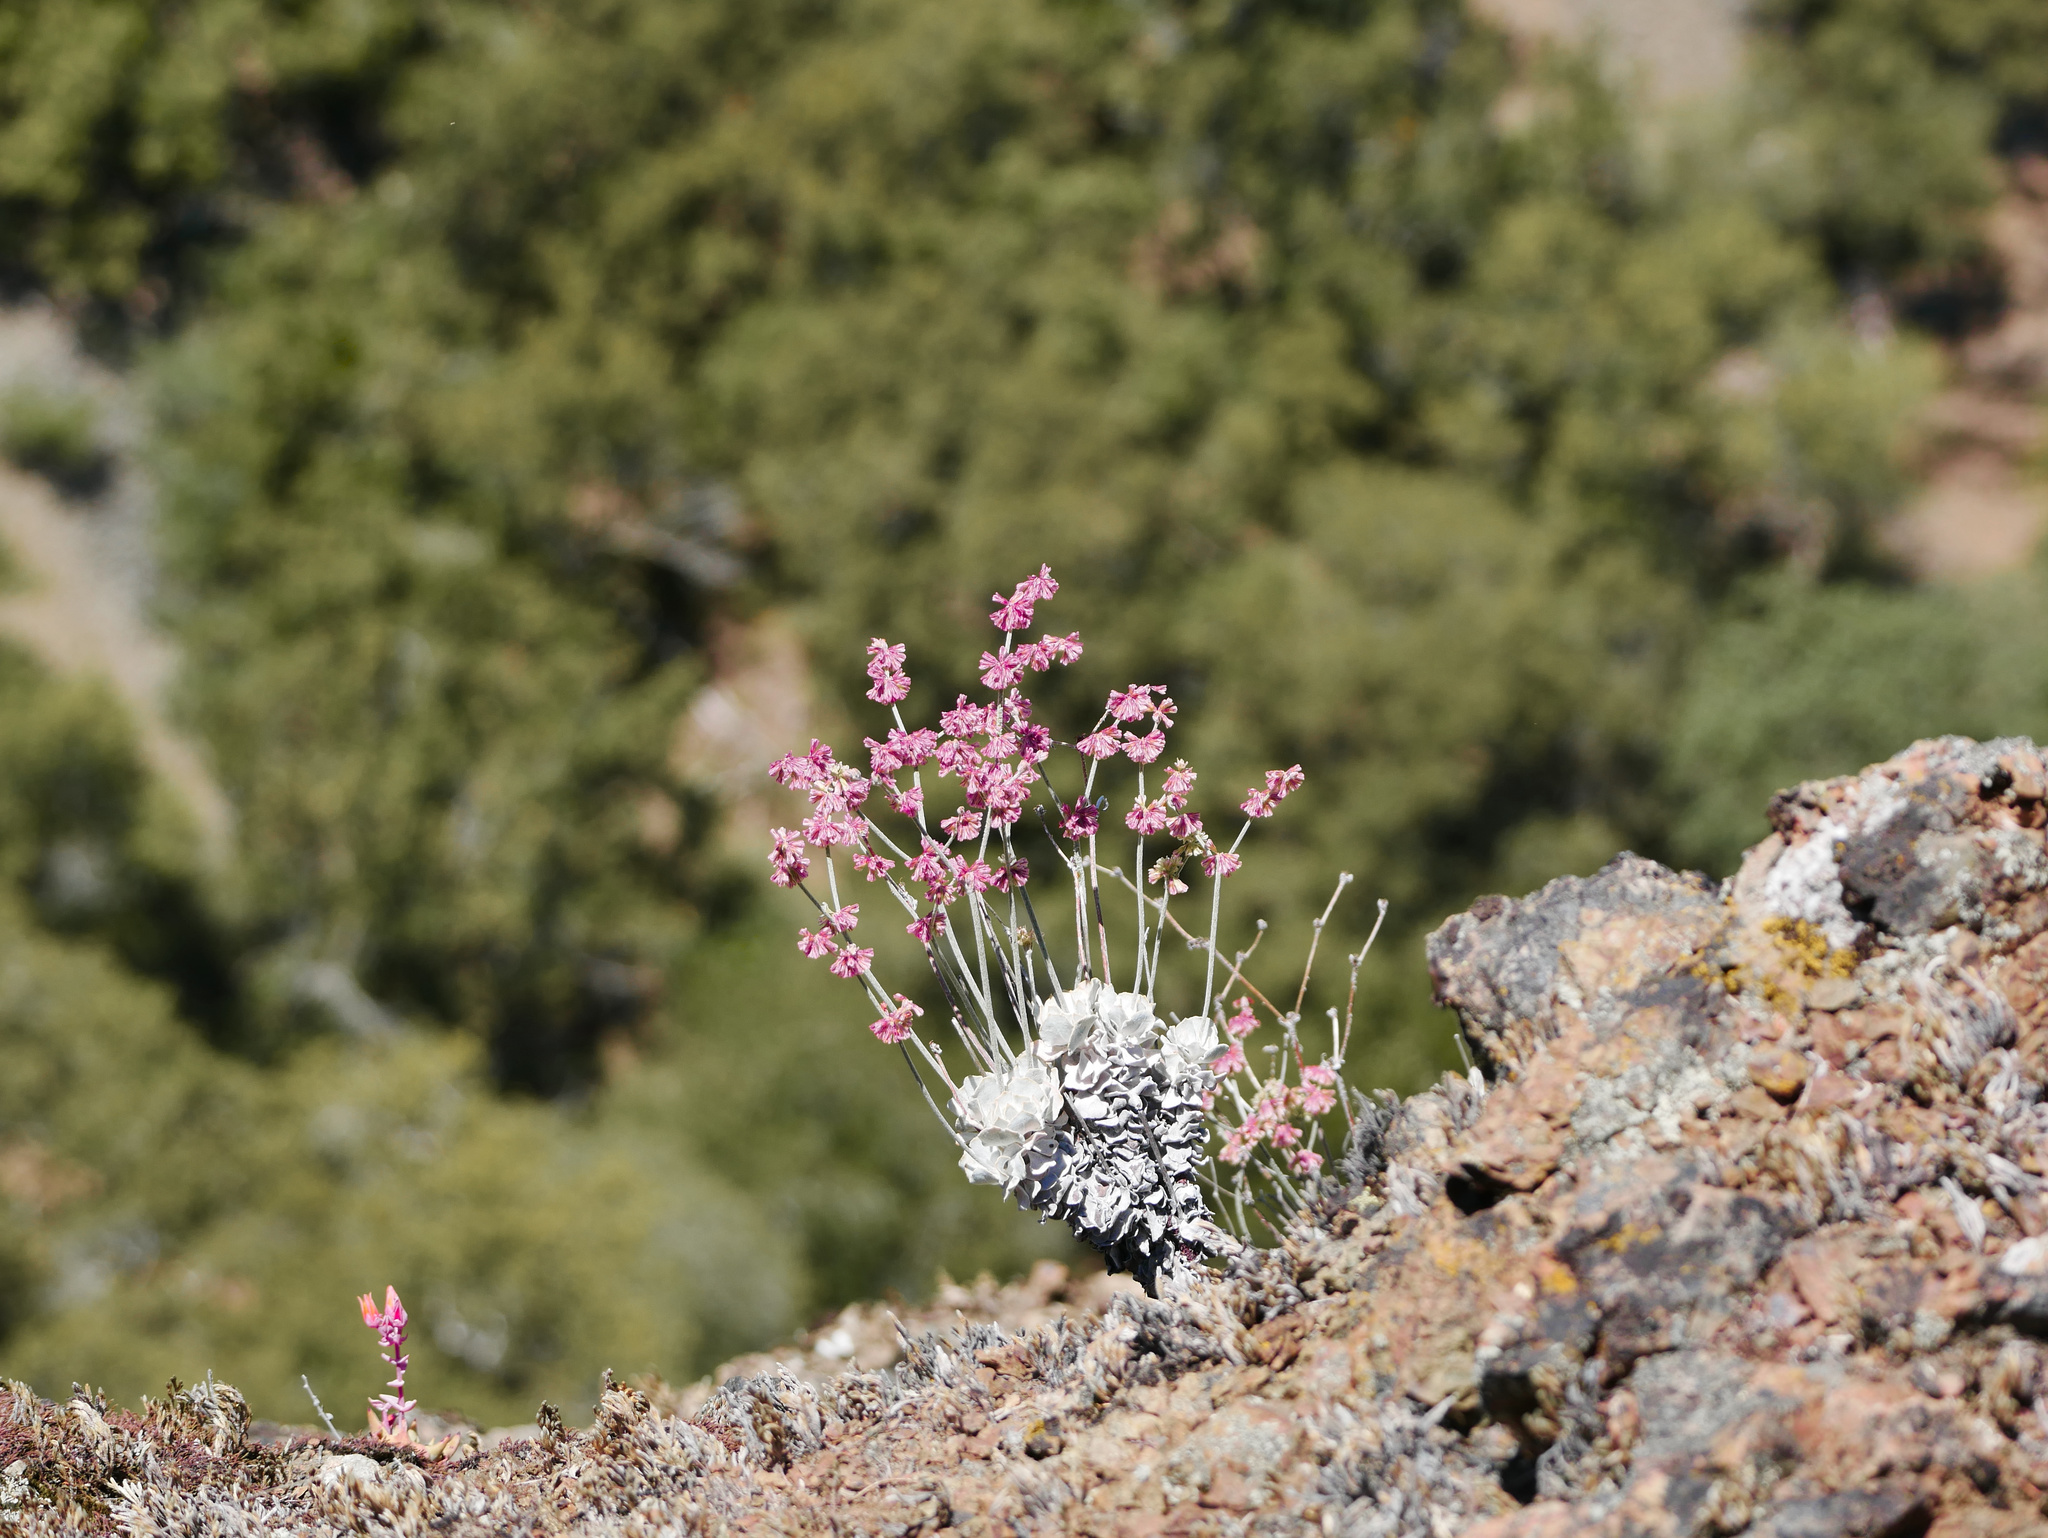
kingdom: Plantae
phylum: Tracheophyta
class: Magnoliopsida
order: Caryophyllales
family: Polygonaceae
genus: Eriogonum
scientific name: Eriogonum saxatile
